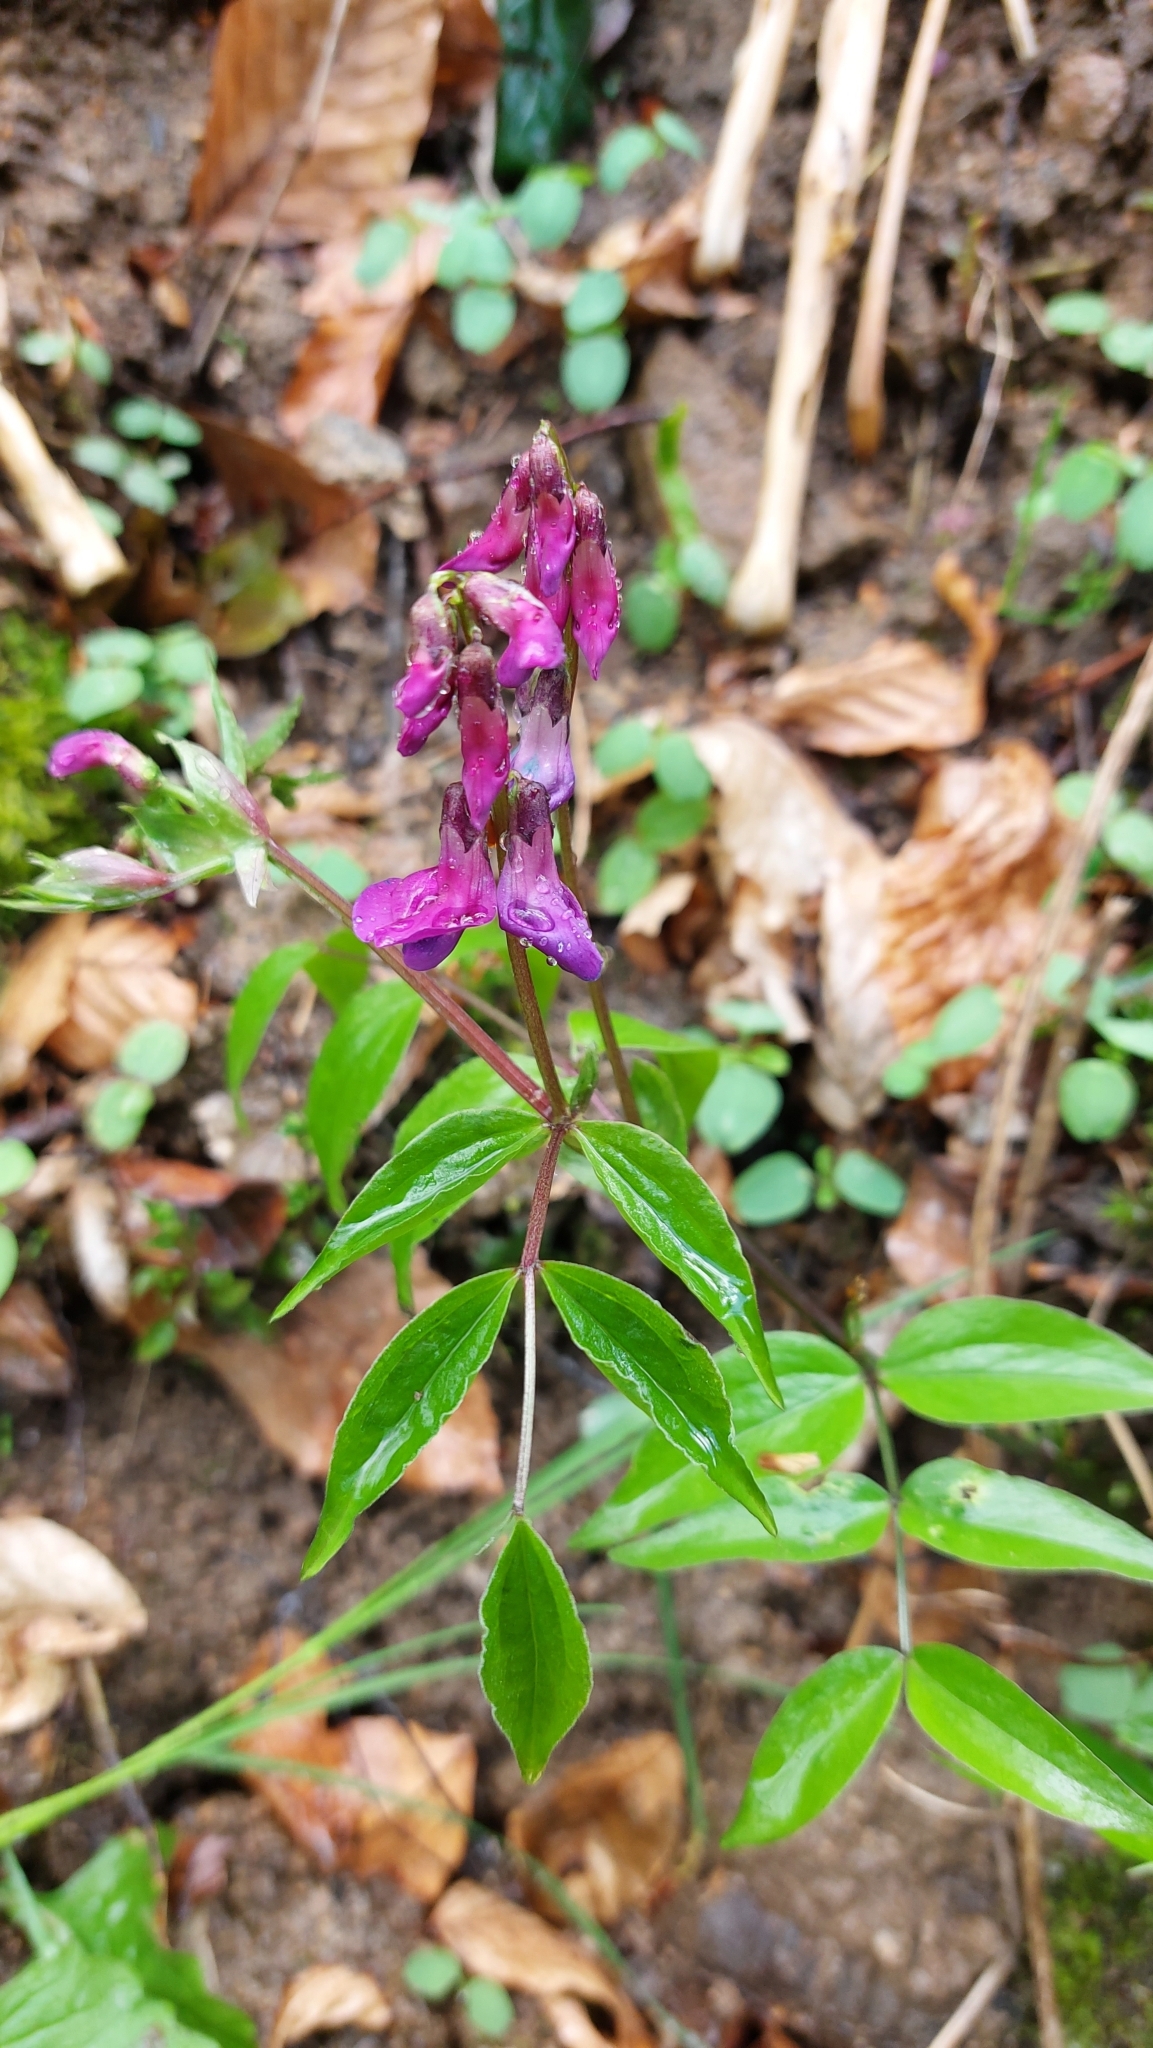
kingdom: Plantae
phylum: Tracheophyta
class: Magnoliopsida
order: Fabales
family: Fabaceae
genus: Lathyrus
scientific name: Lathyrus vernus
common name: Spring pea
